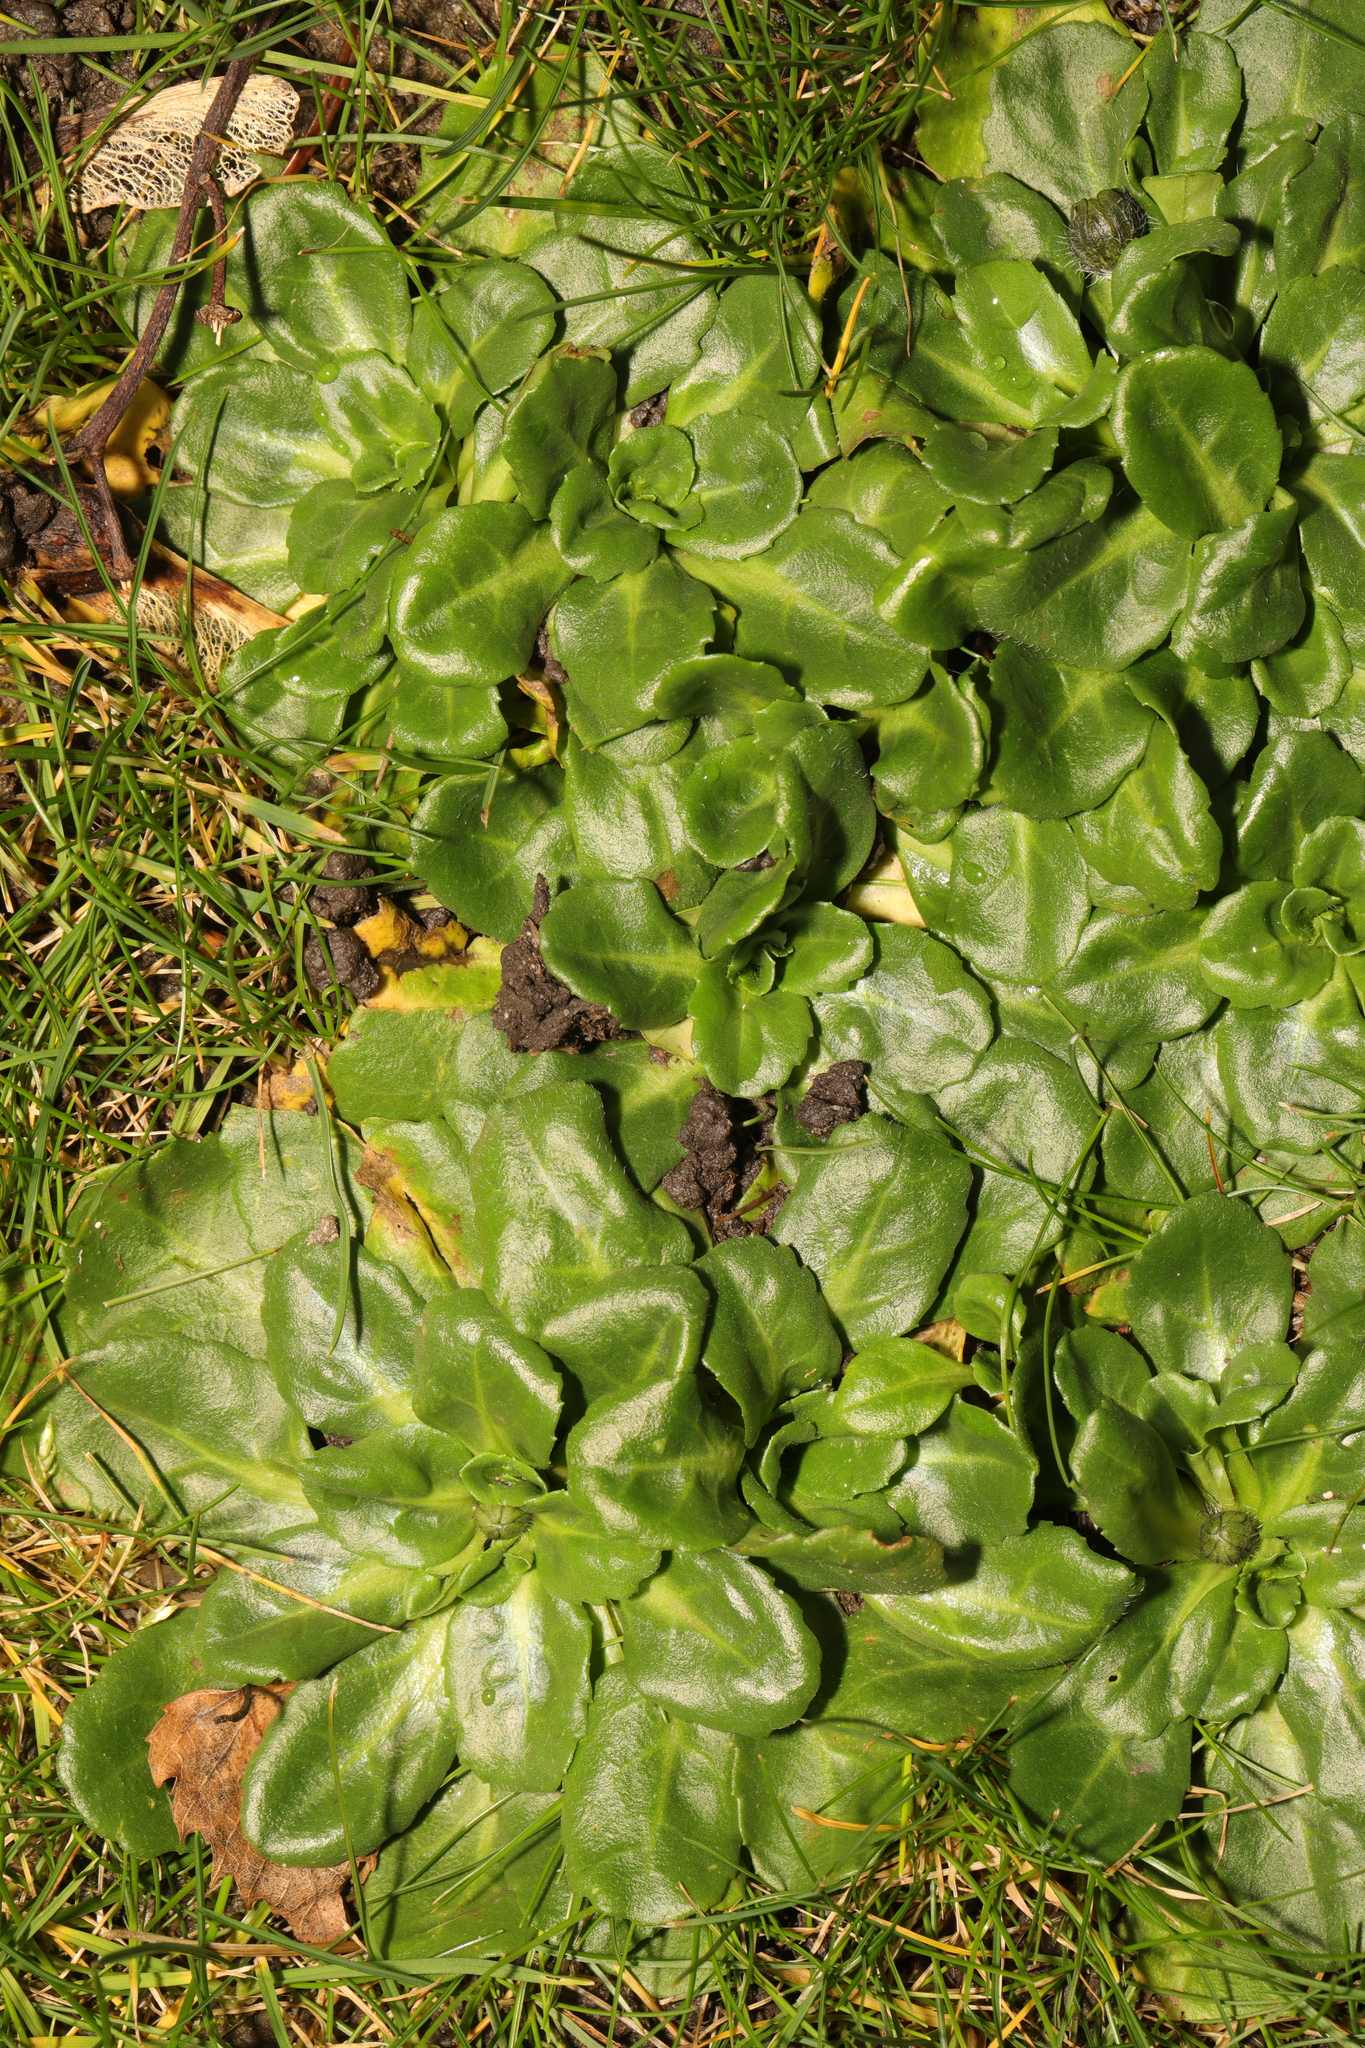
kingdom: Plantae
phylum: Tracheophyta
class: Magnoliopsida
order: Asterales
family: Asteraceae
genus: Bellis
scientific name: Bellis perennis
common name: Lawndaisy
